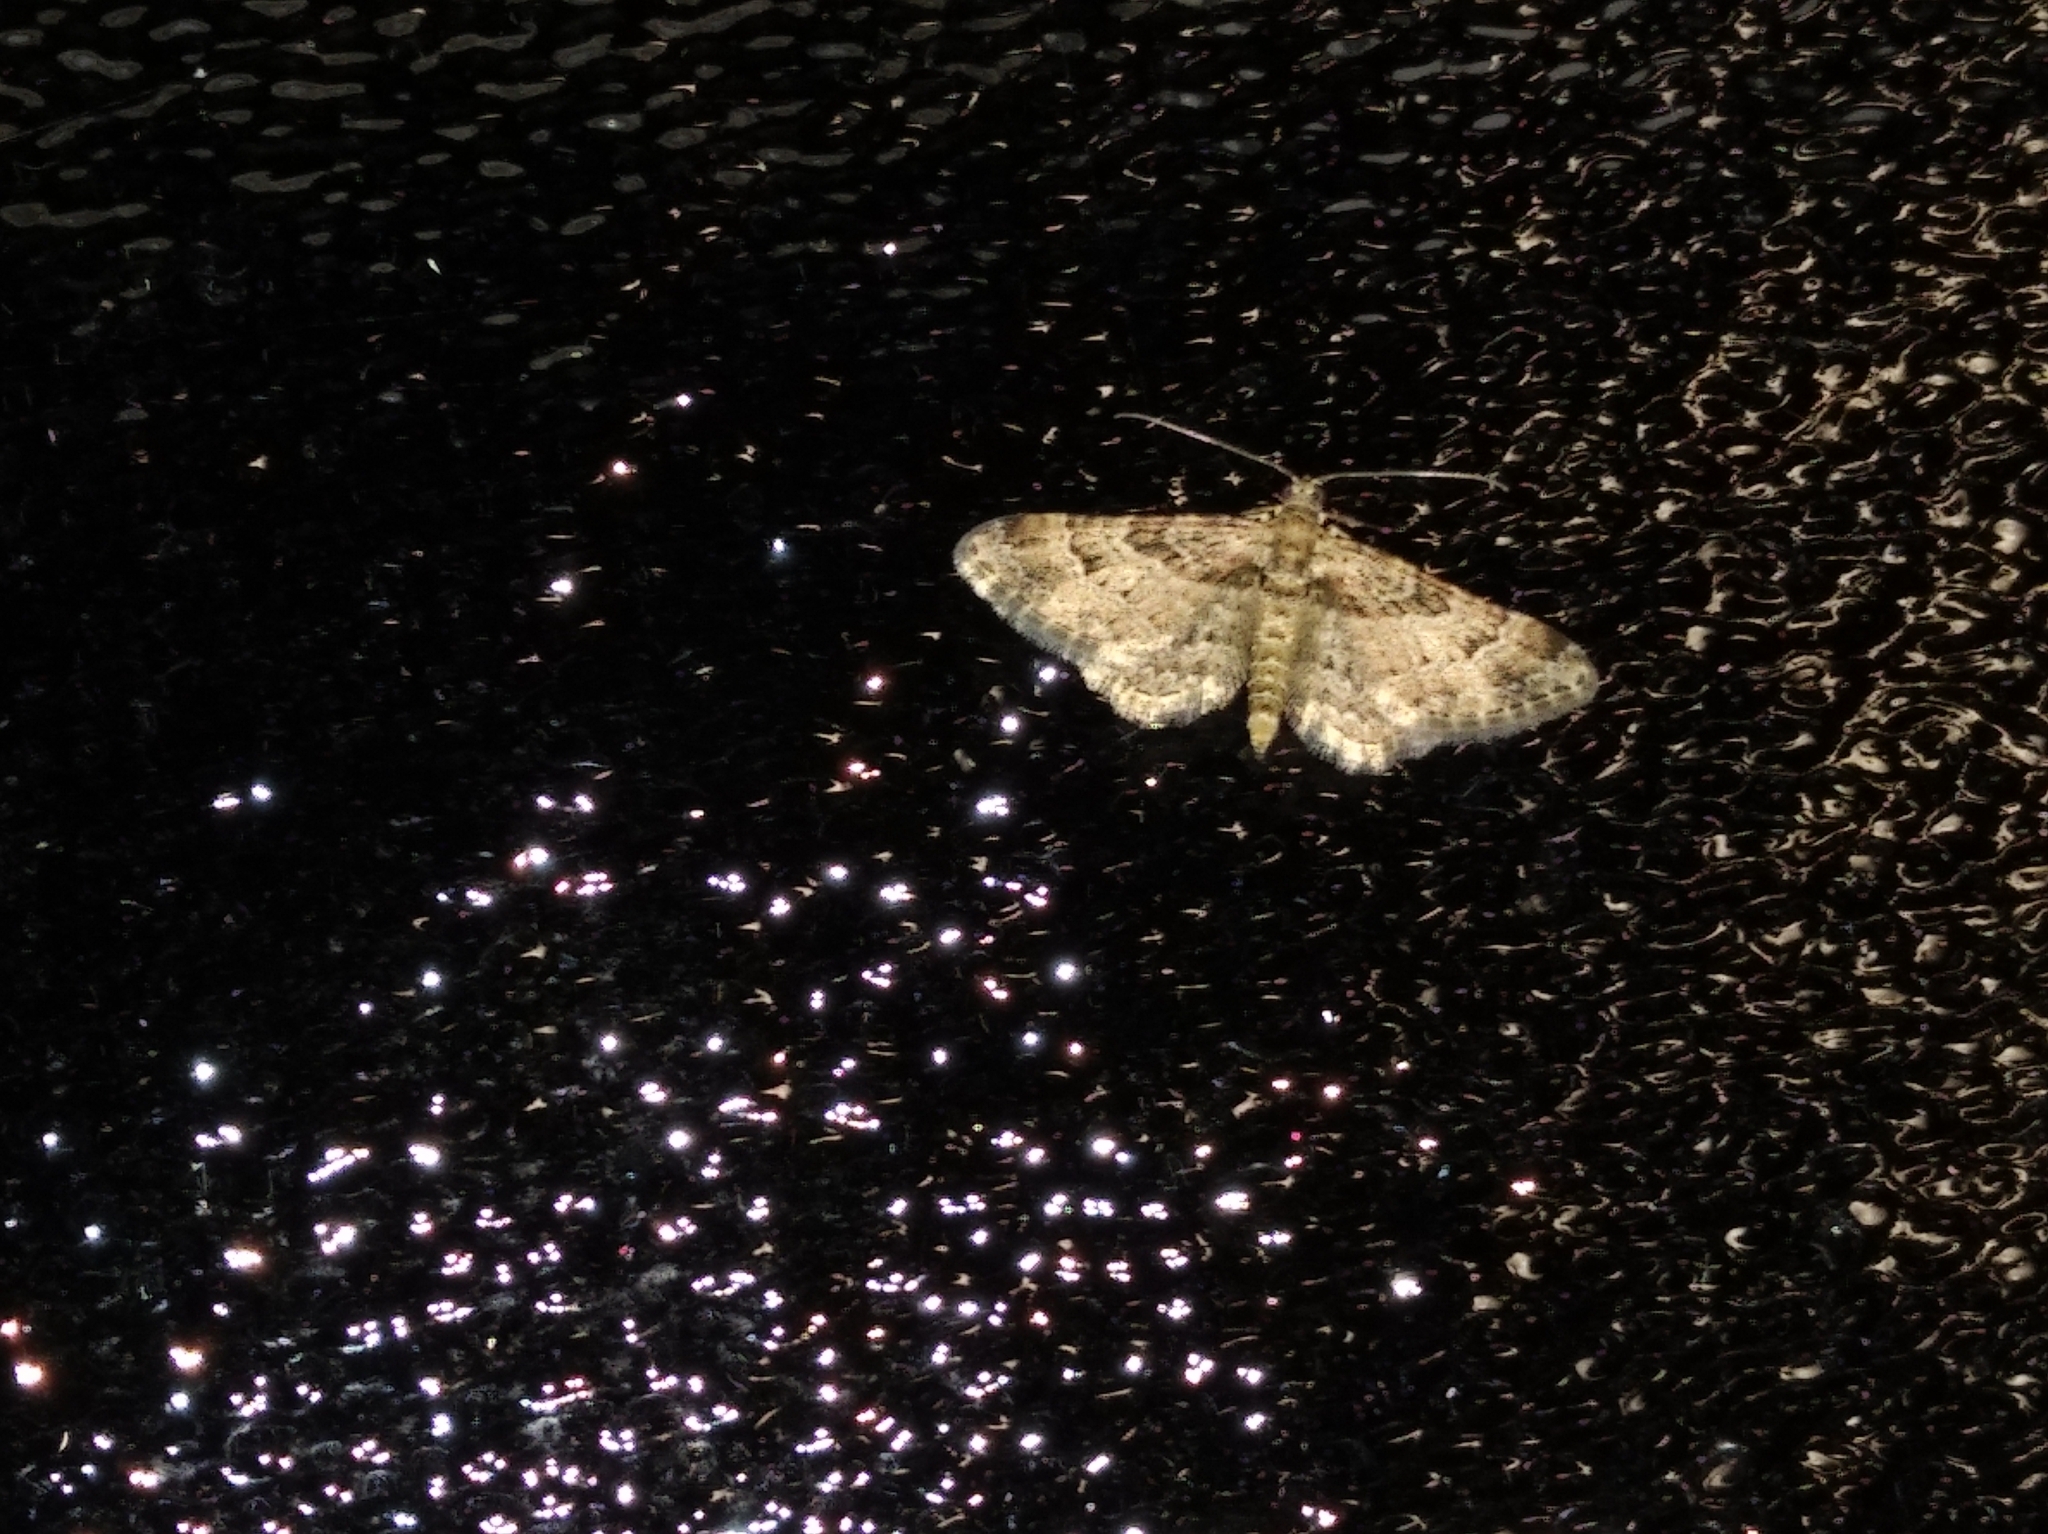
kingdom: Animalia
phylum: Arthropoda
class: Insecta
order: Lepidoptera
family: Geometridae
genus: Gymnoscelis
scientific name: Gymnoscelis rufifasciata
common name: Double-striped pug
